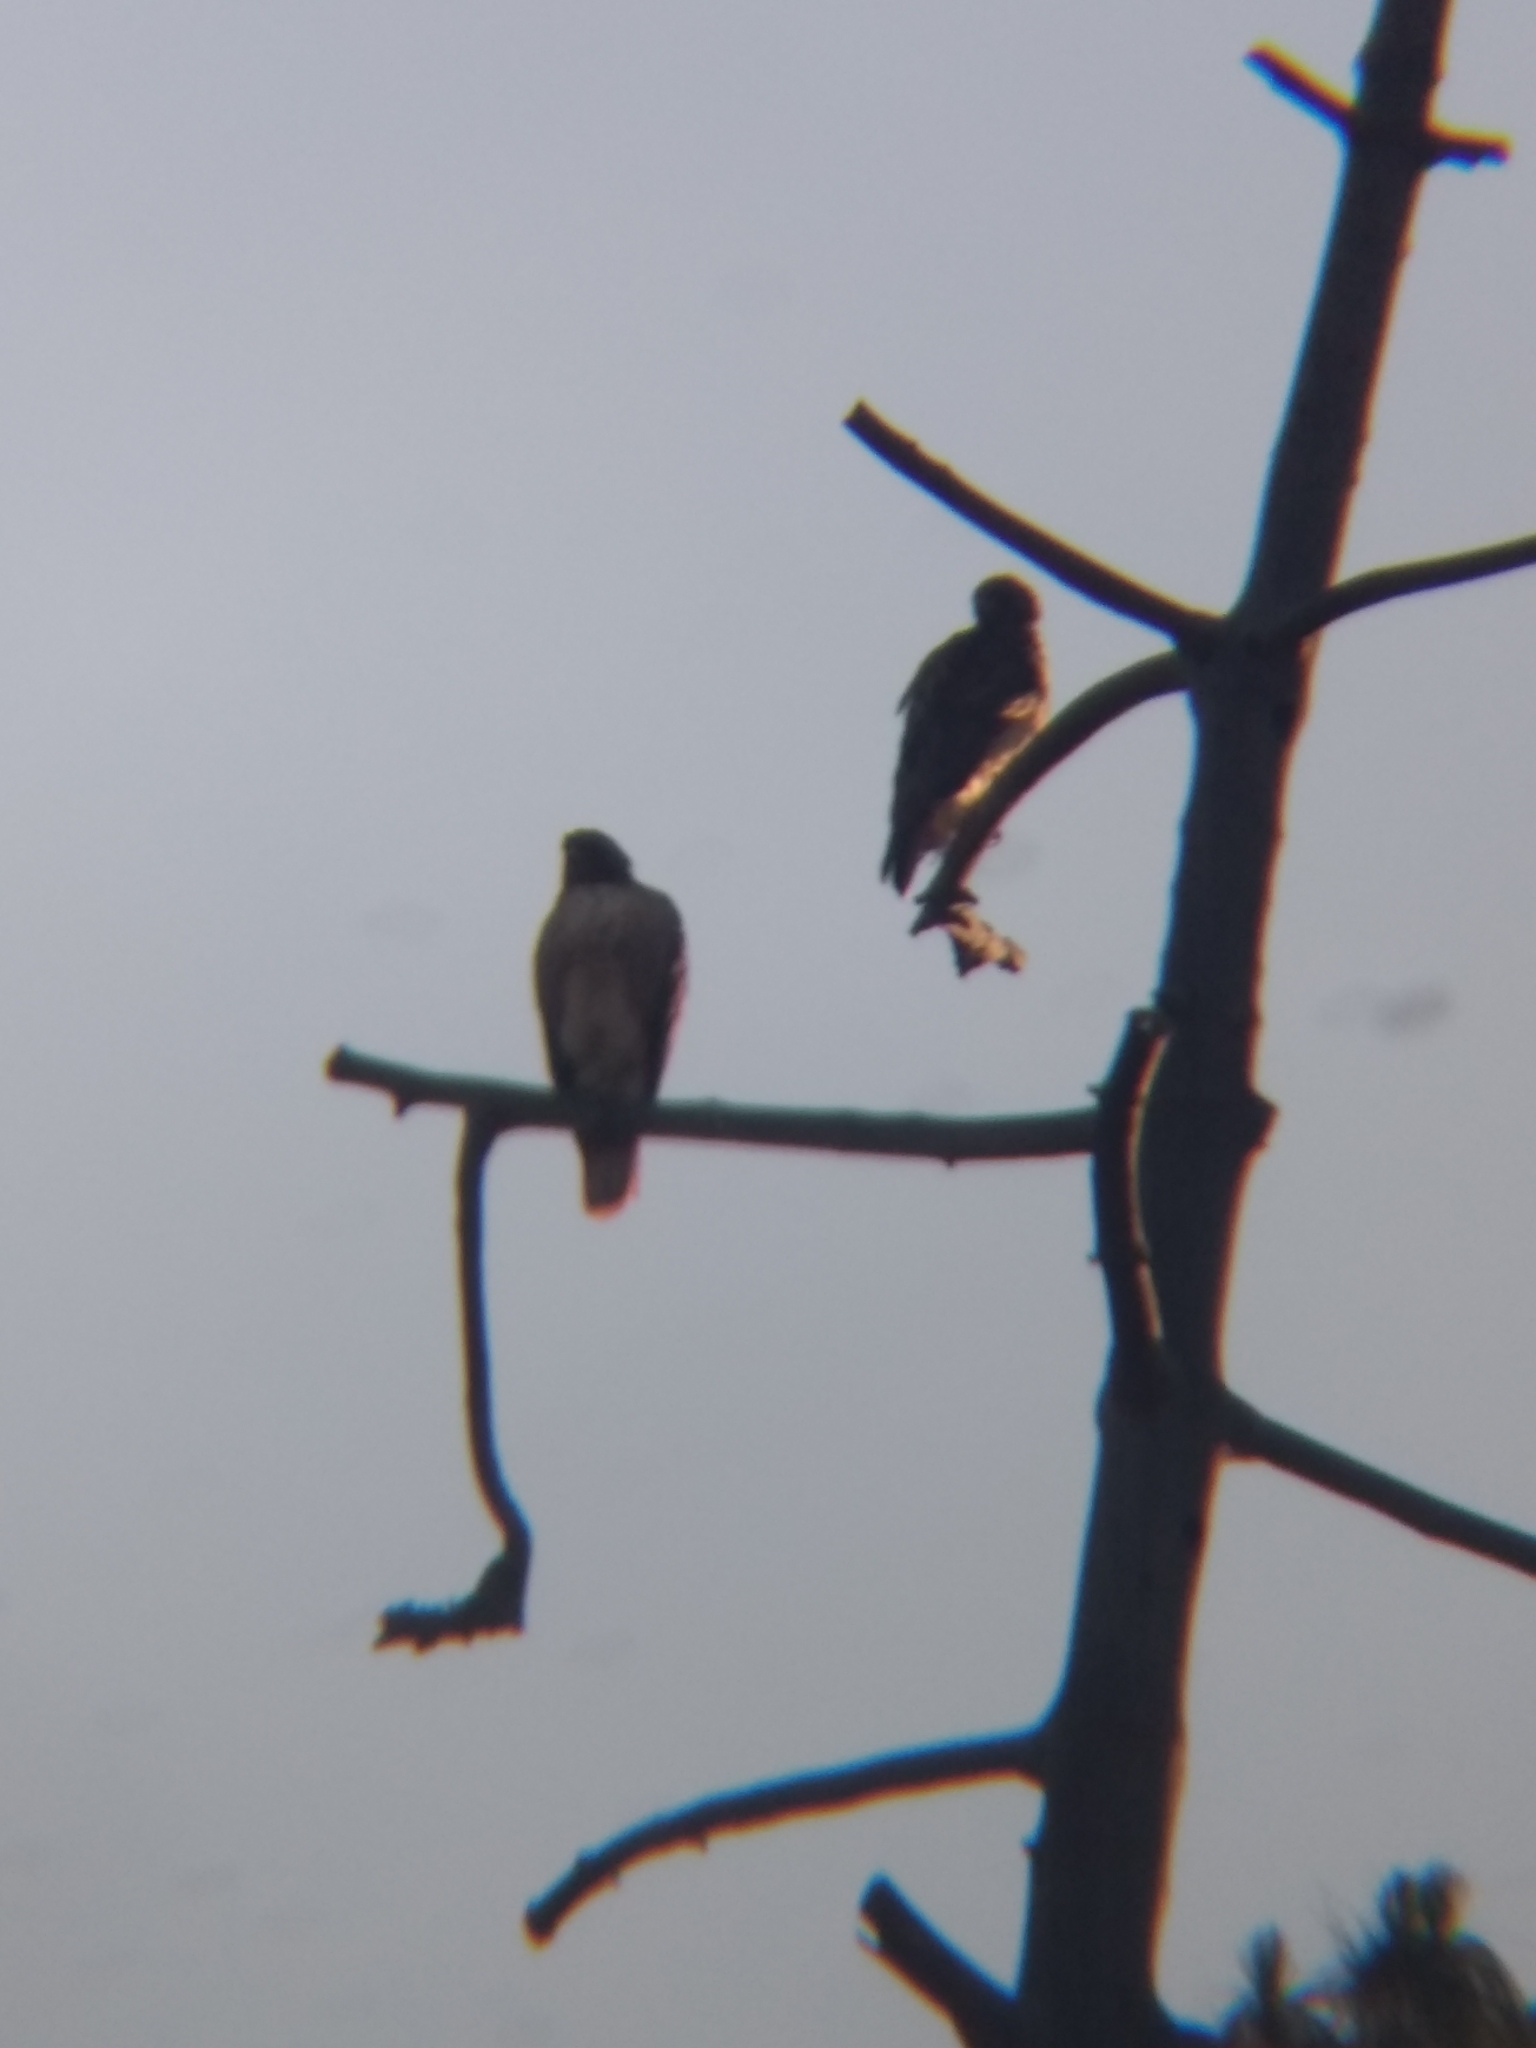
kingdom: Animalia
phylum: Chordata
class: Aves
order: Accipitriformes
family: Accipitridae
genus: Buteo
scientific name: Buteo jamaicensis
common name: Red-tailed hawk
